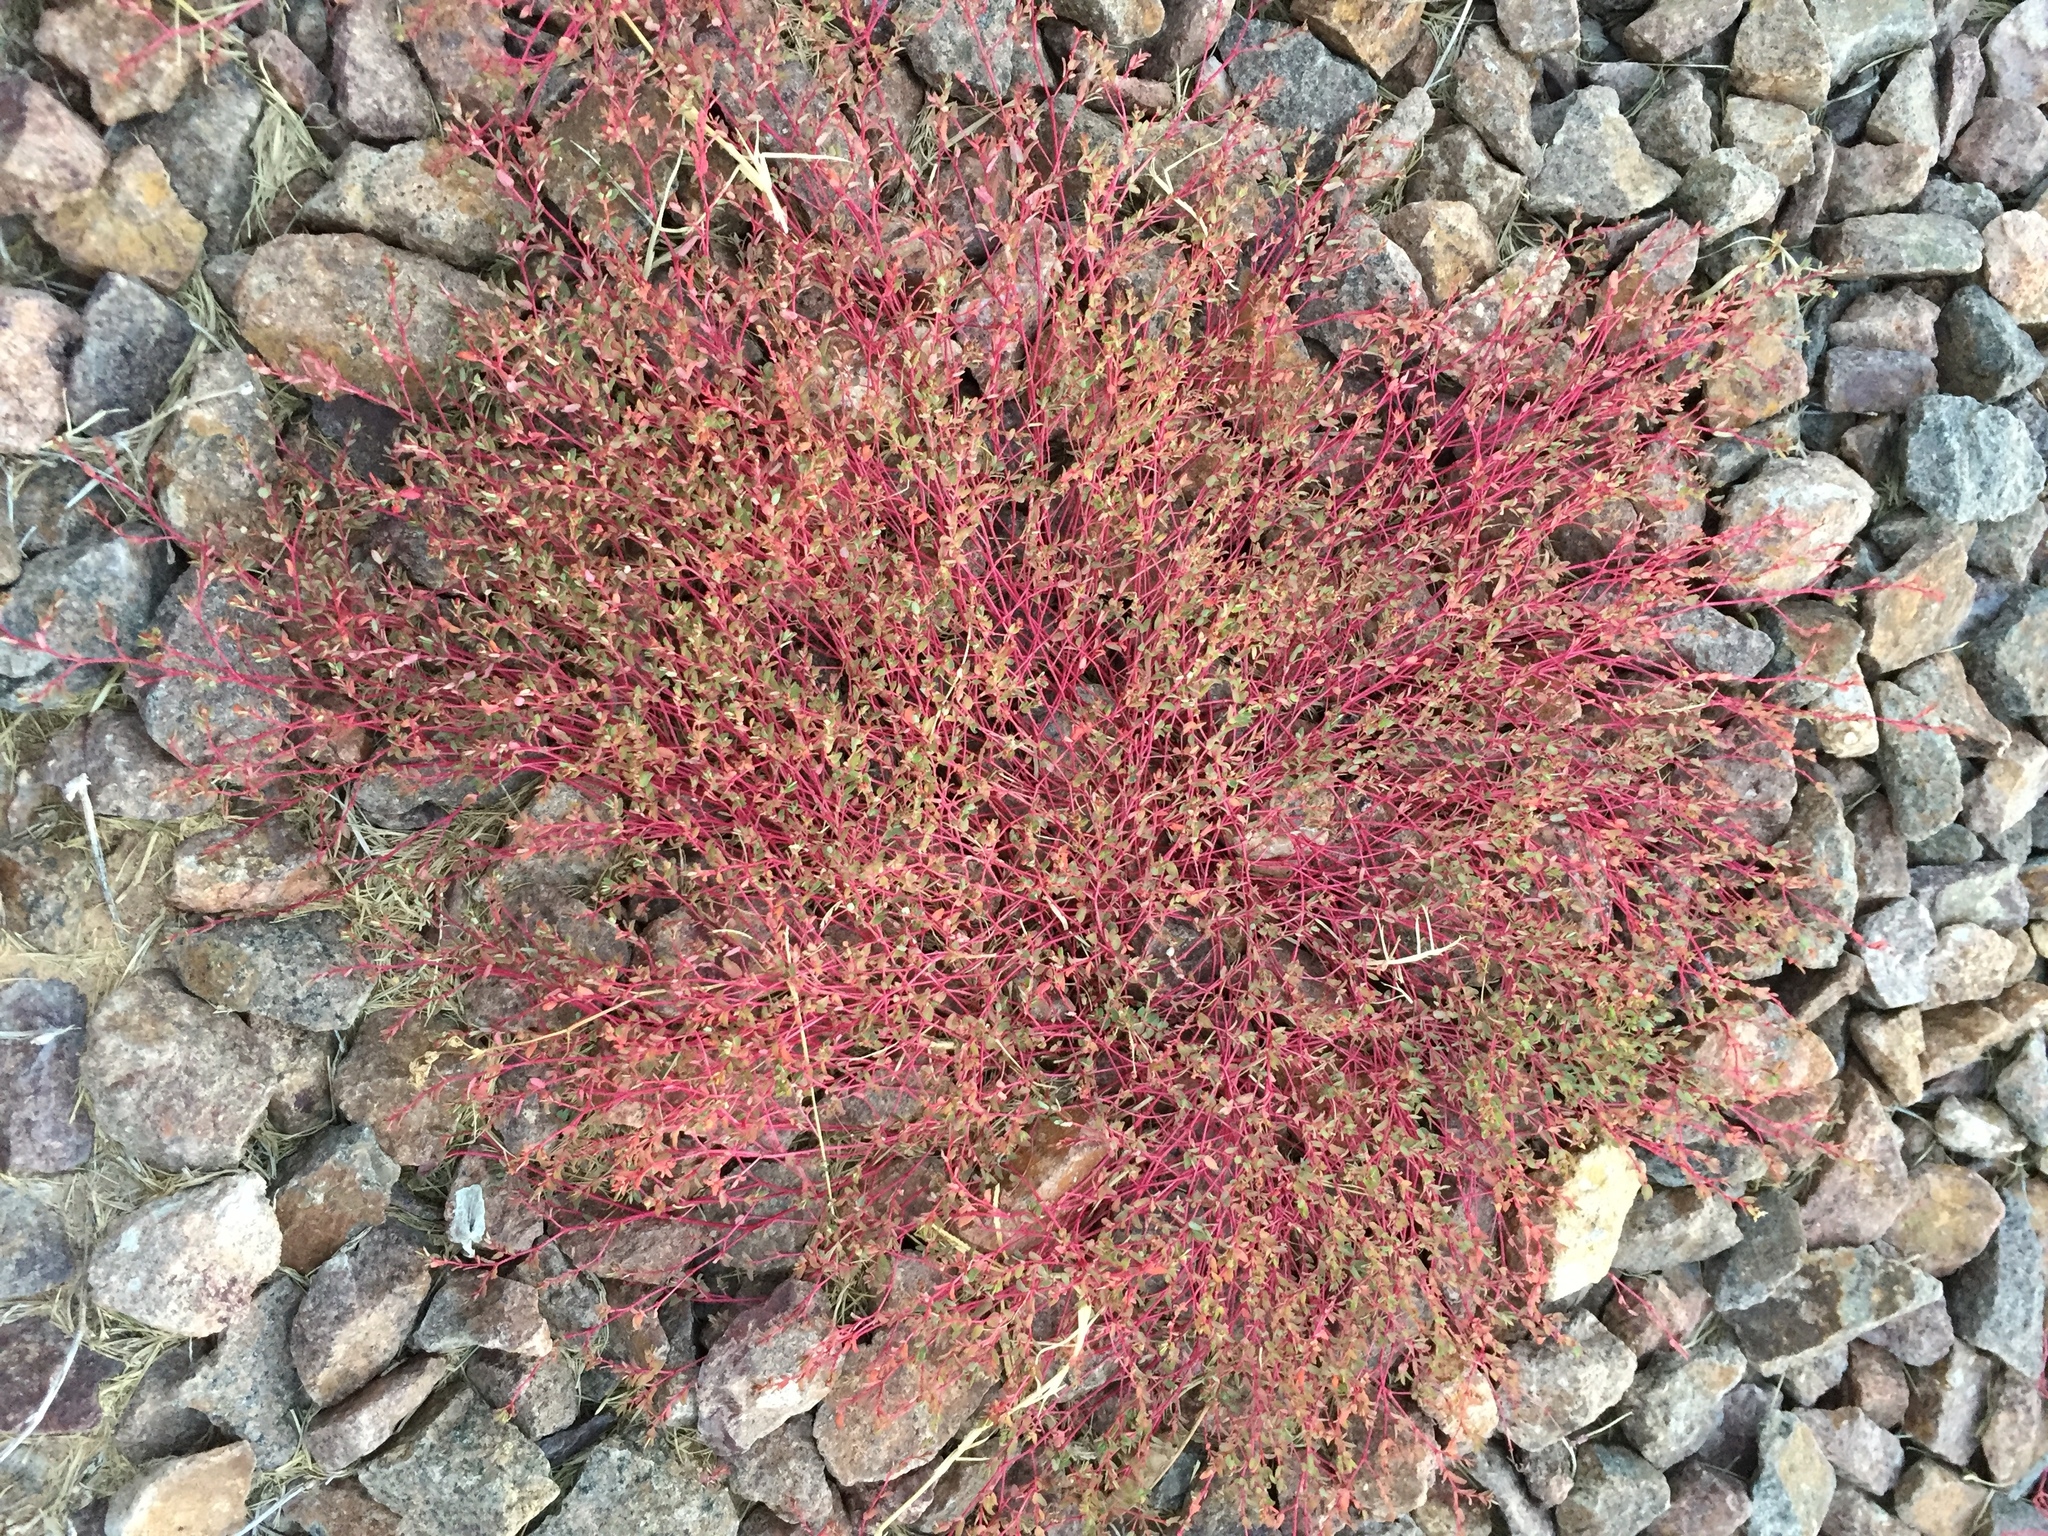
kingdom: Plantae
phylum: Tracheophyta
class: Magnoliopsida
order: Malpighiales
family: Euphorbiaceae
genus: Euphorbia
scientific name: Euphorbia vermiculata
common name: Hairy spurge
